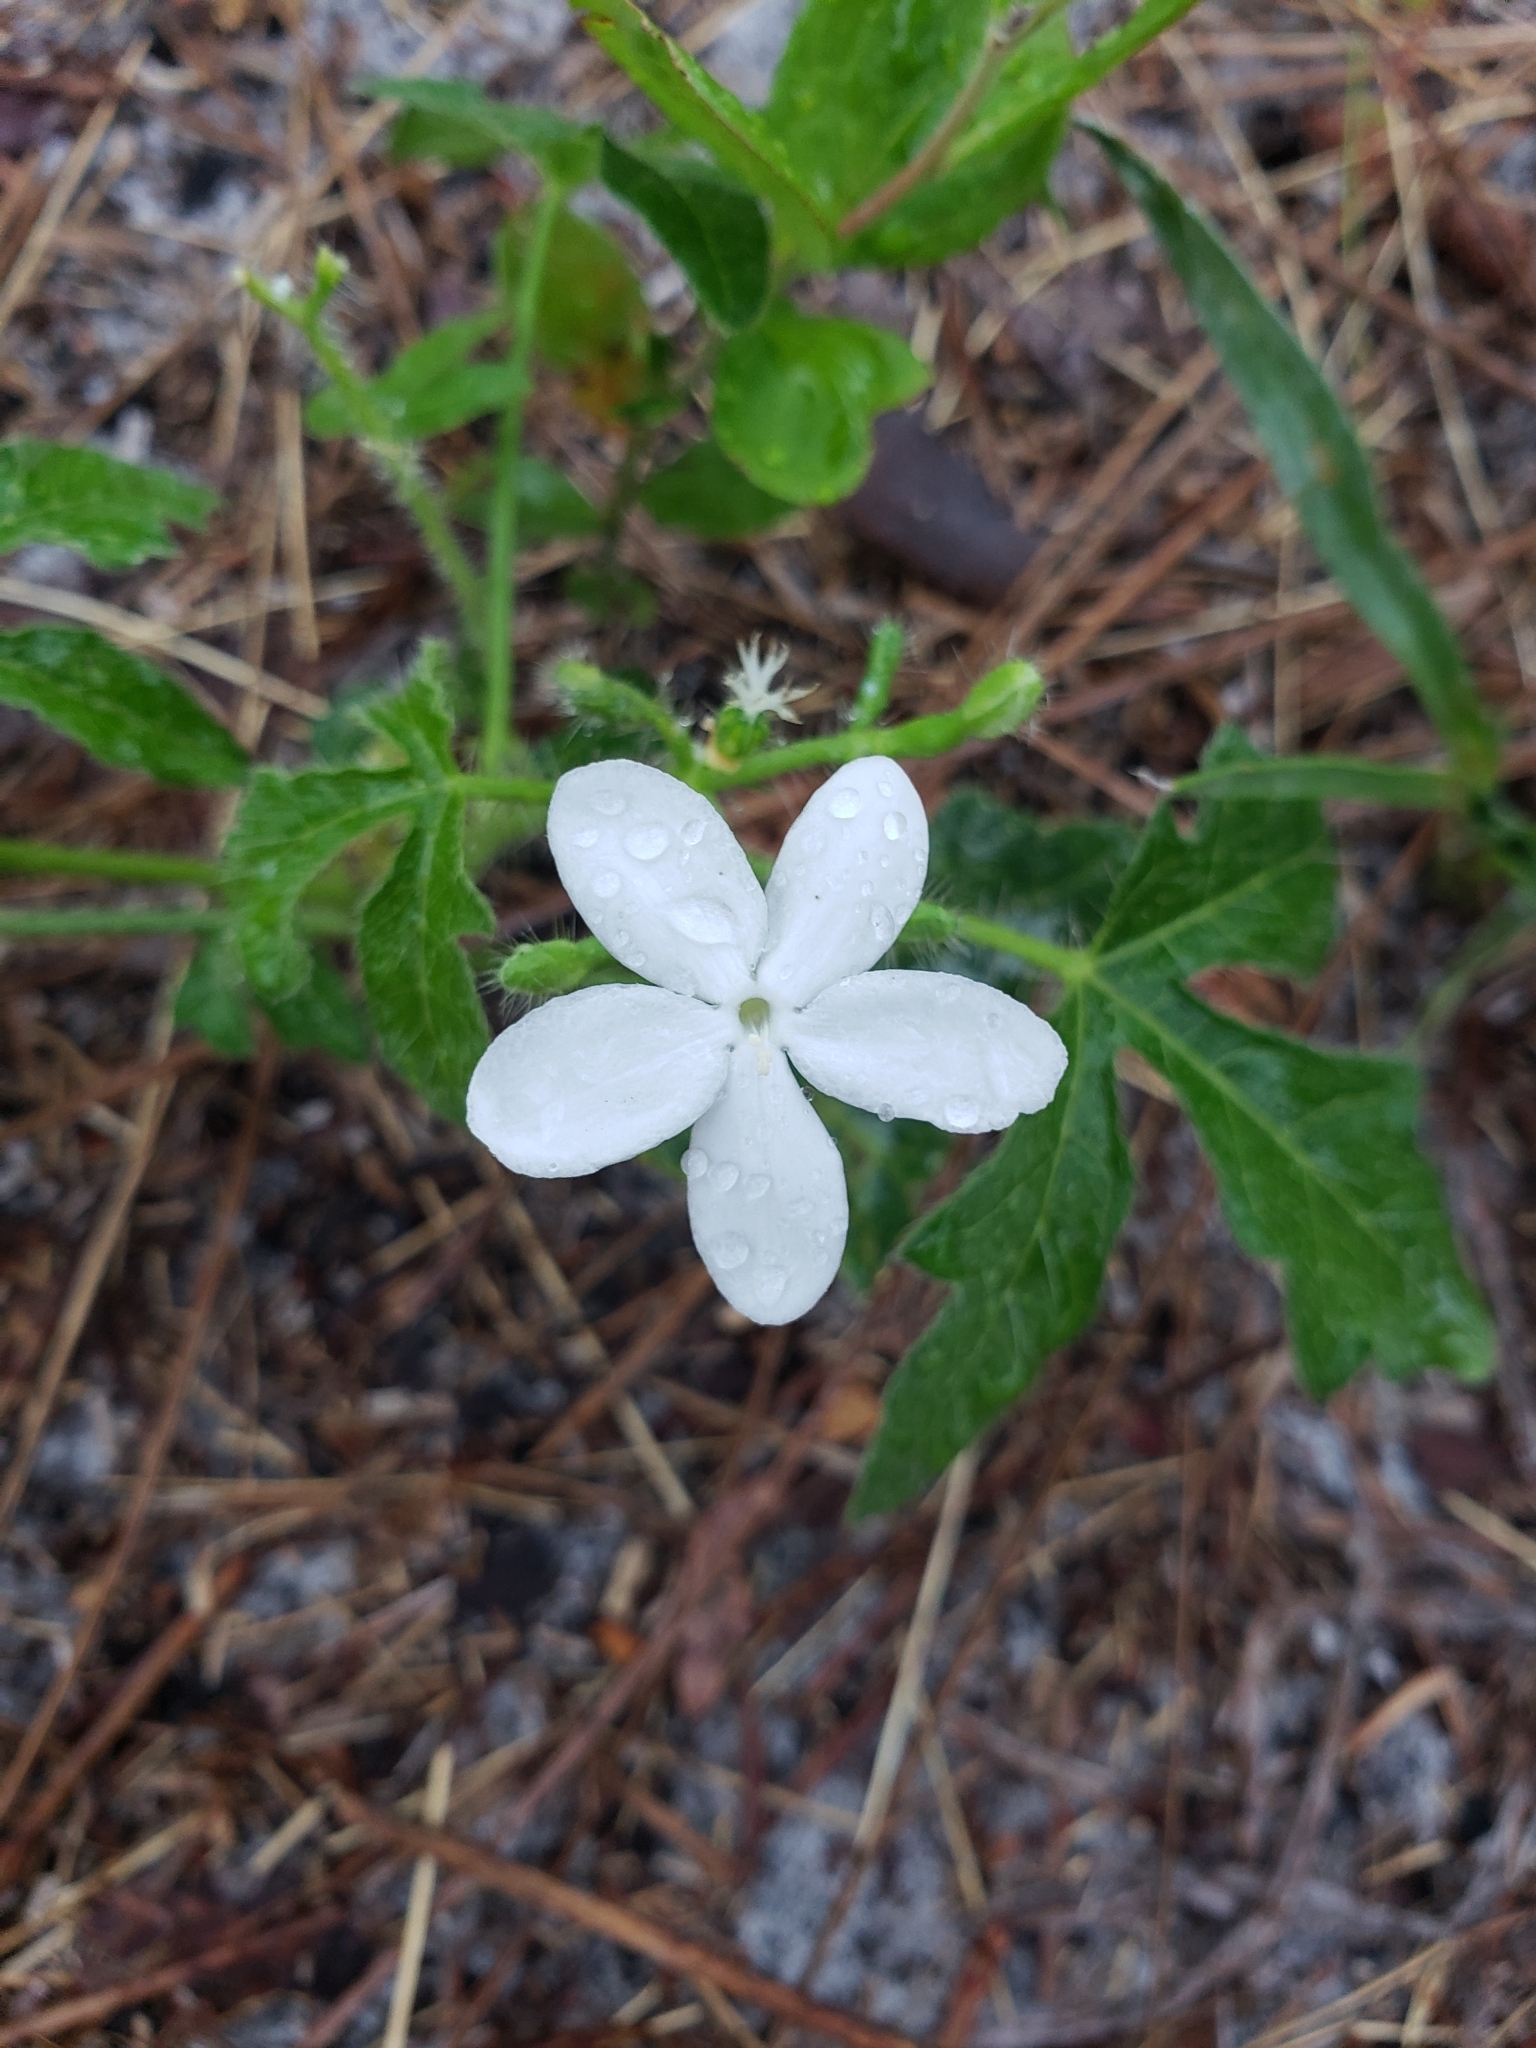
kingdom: Plantae
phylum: Tracheophyta
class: Magnoliopsida
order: Malpighiales
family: Euphorbiaceae
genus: Cnidoscolus
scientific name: Cnidoscolus stimulosus
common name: Bull-nettle
